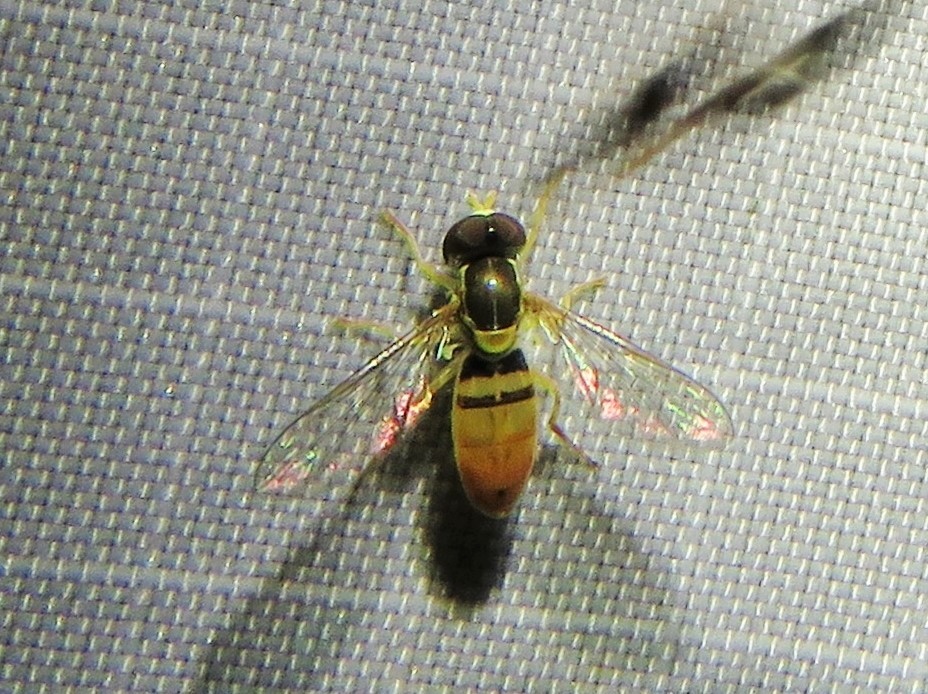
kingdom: Animalia
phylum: Arthropoda
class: Insecta
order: Diptera
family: Syrphidae
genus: Toxomerus
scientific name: Toxomerus marginatus
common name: Syrphid fly
